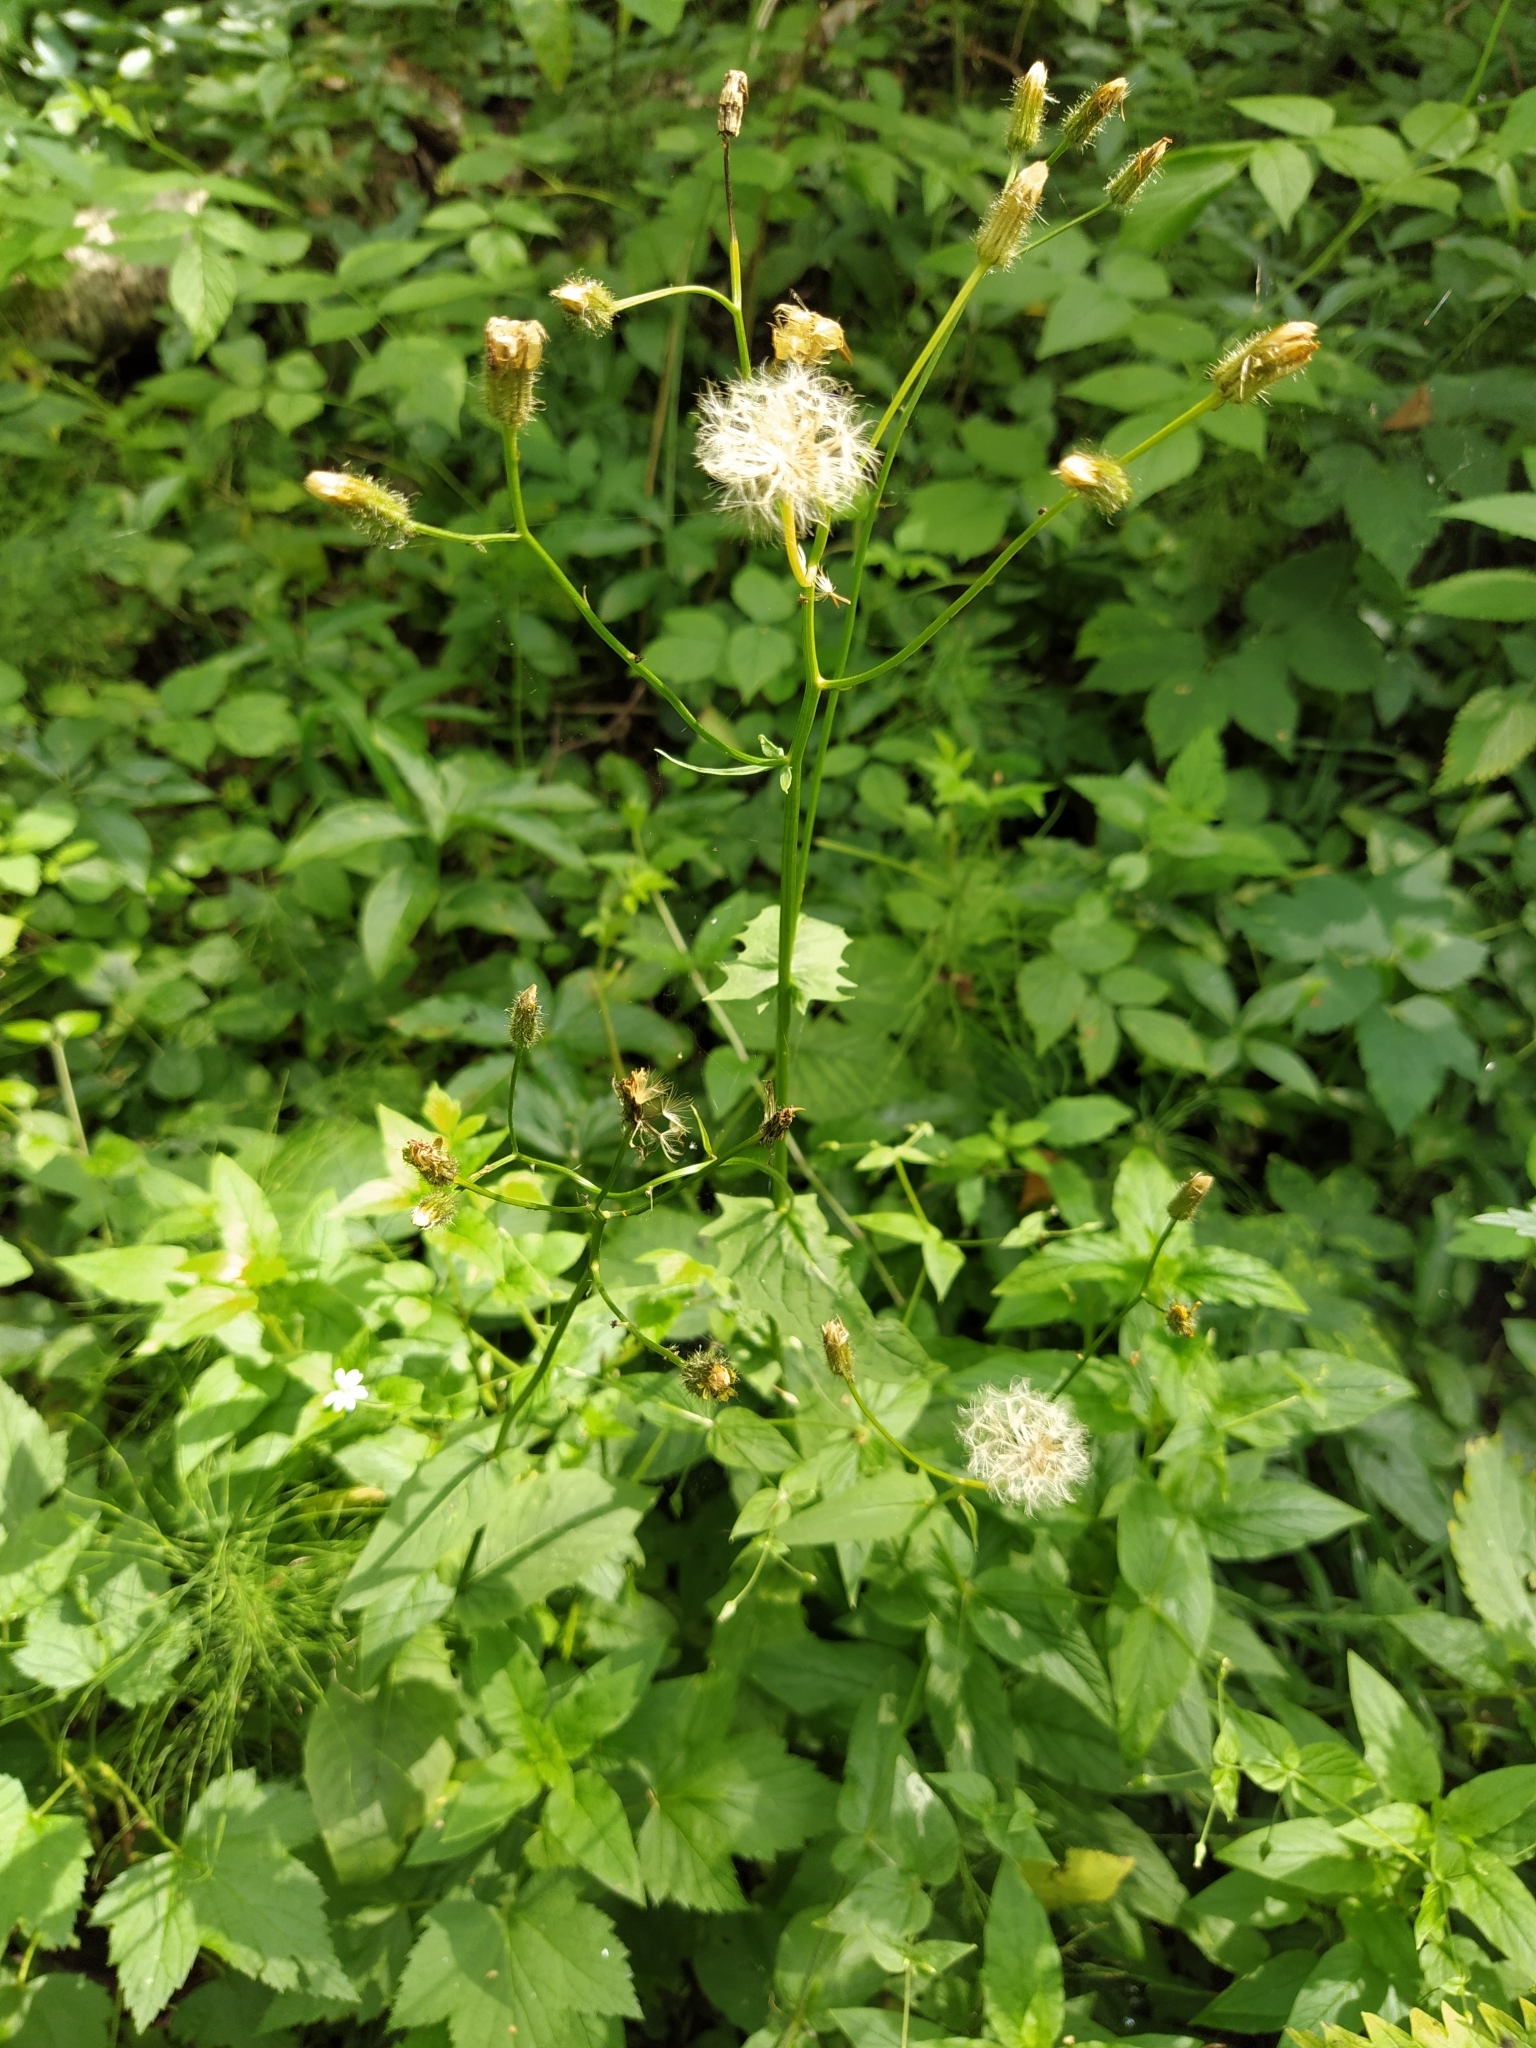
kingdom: Plantae
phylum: Tracheophyta
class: Magnoliopsida
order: Asterales
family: Asteraceae
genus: Crepis
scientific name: Crepis paludosa
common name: Marsh hawk's-beard
